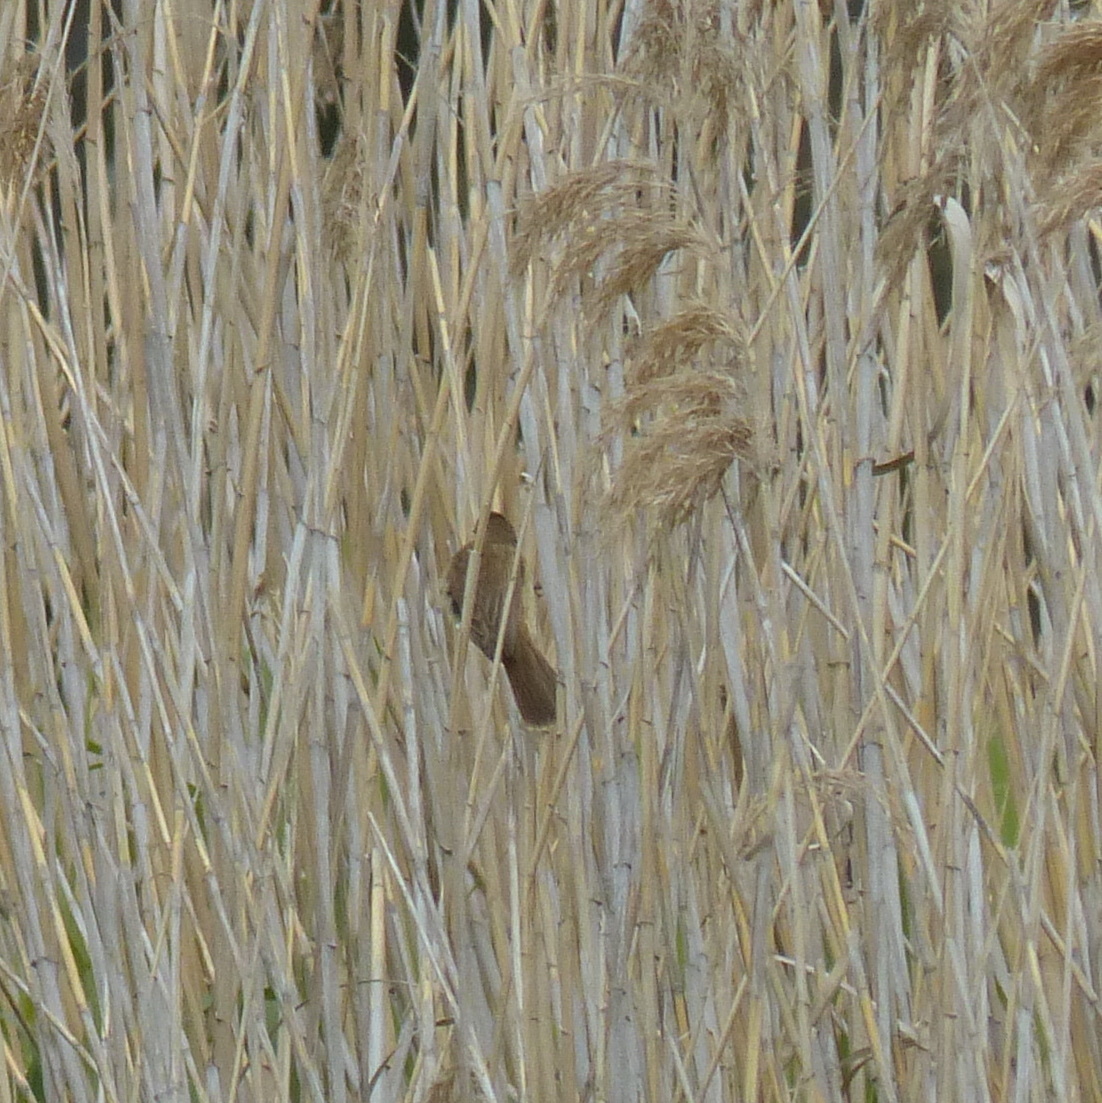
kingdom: Animalia
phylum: Chordata
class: Aves
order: Passeriformes
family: Acrocephalidae
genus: Acrocephalus
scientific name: Acrocephalus australis
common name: Australian reed warbler
